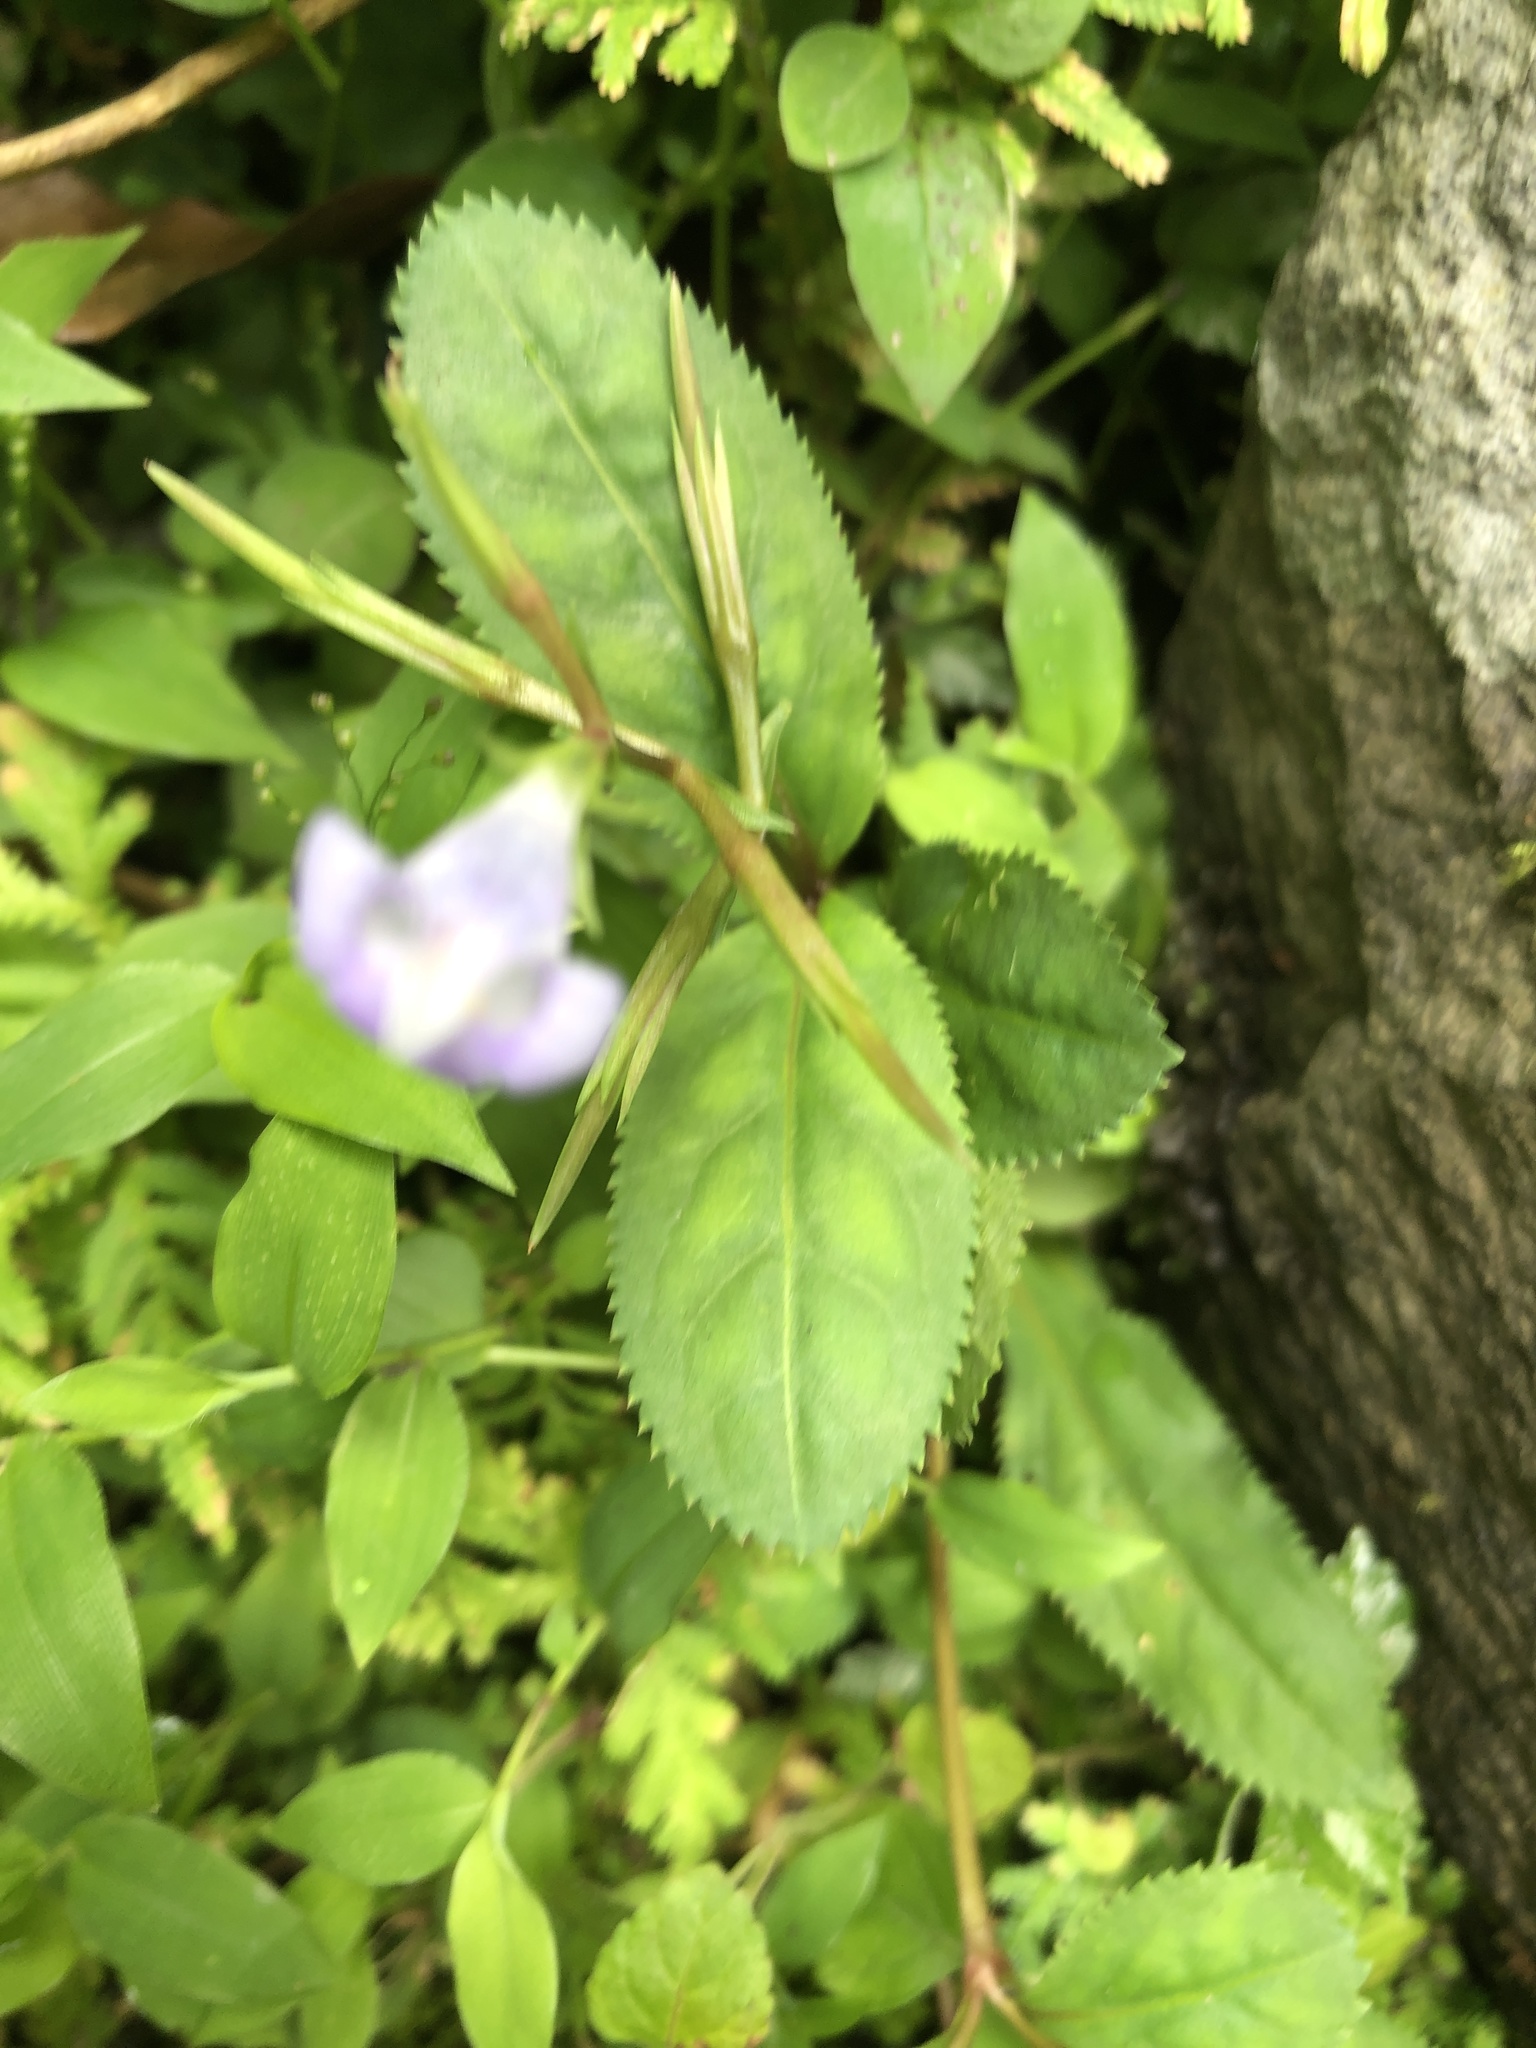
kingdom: Plantae
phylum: Tracheophyta
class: Magnoliopsida
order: Lamiales
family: Linderniaceae
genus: Bonnaya
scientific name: Bonnaya ruelloides
